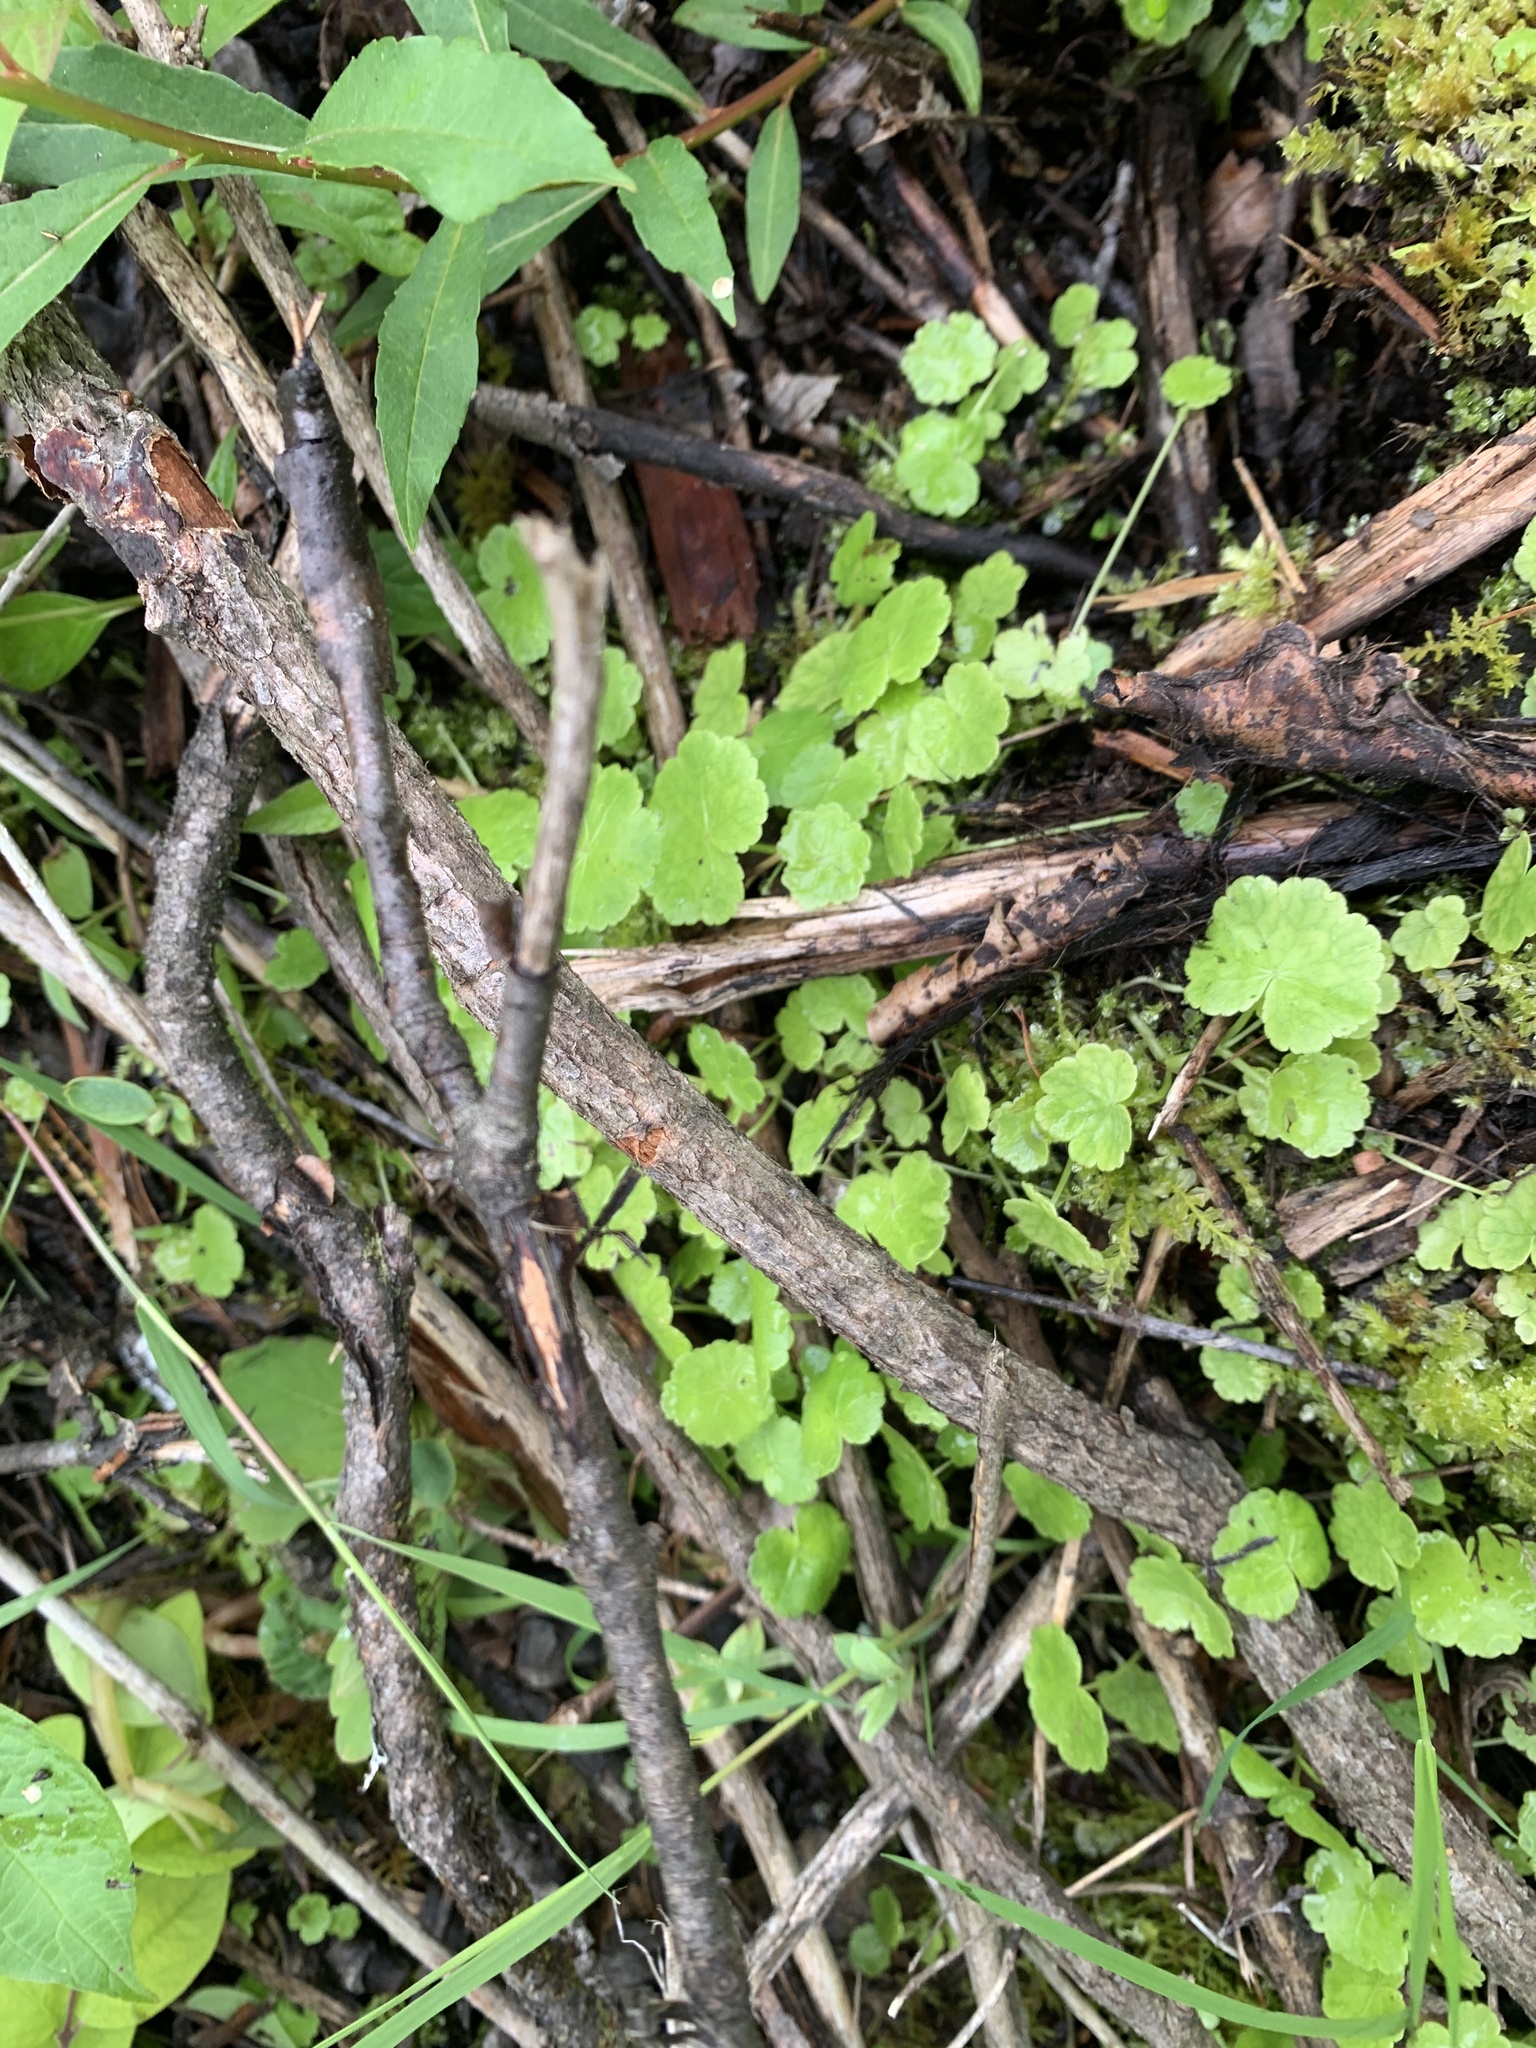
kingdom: Plantae
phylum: Tracheophyta
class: Magnoliopsida
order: Apiales
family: Araliaceae
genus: Hydrocotyle
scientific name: Hydrocotyle americana
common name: American water-pennywort
